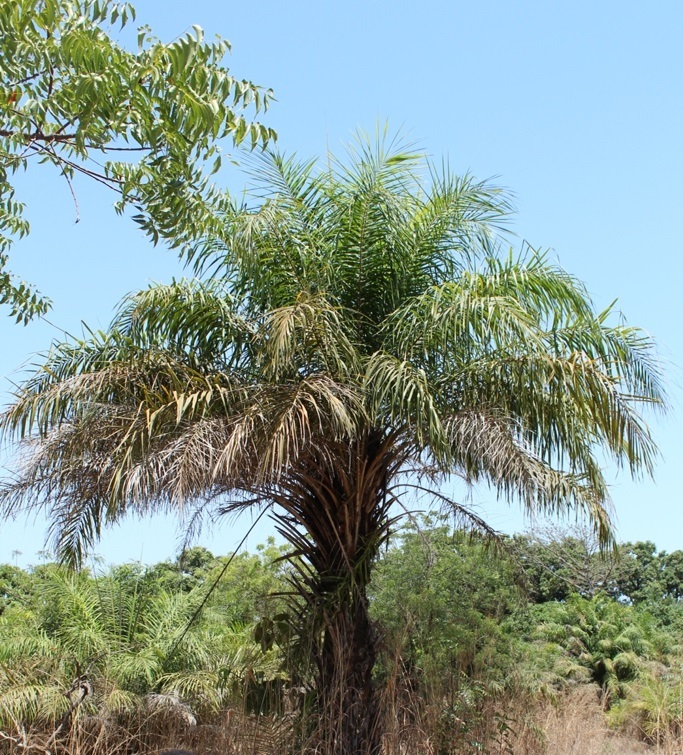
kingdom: Plantae
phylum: Tracheophyta
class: Liliopsida
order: Arecales
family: Arecaceae
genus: Elaeis
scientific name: Elaeis guineensis
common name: Oil palm
